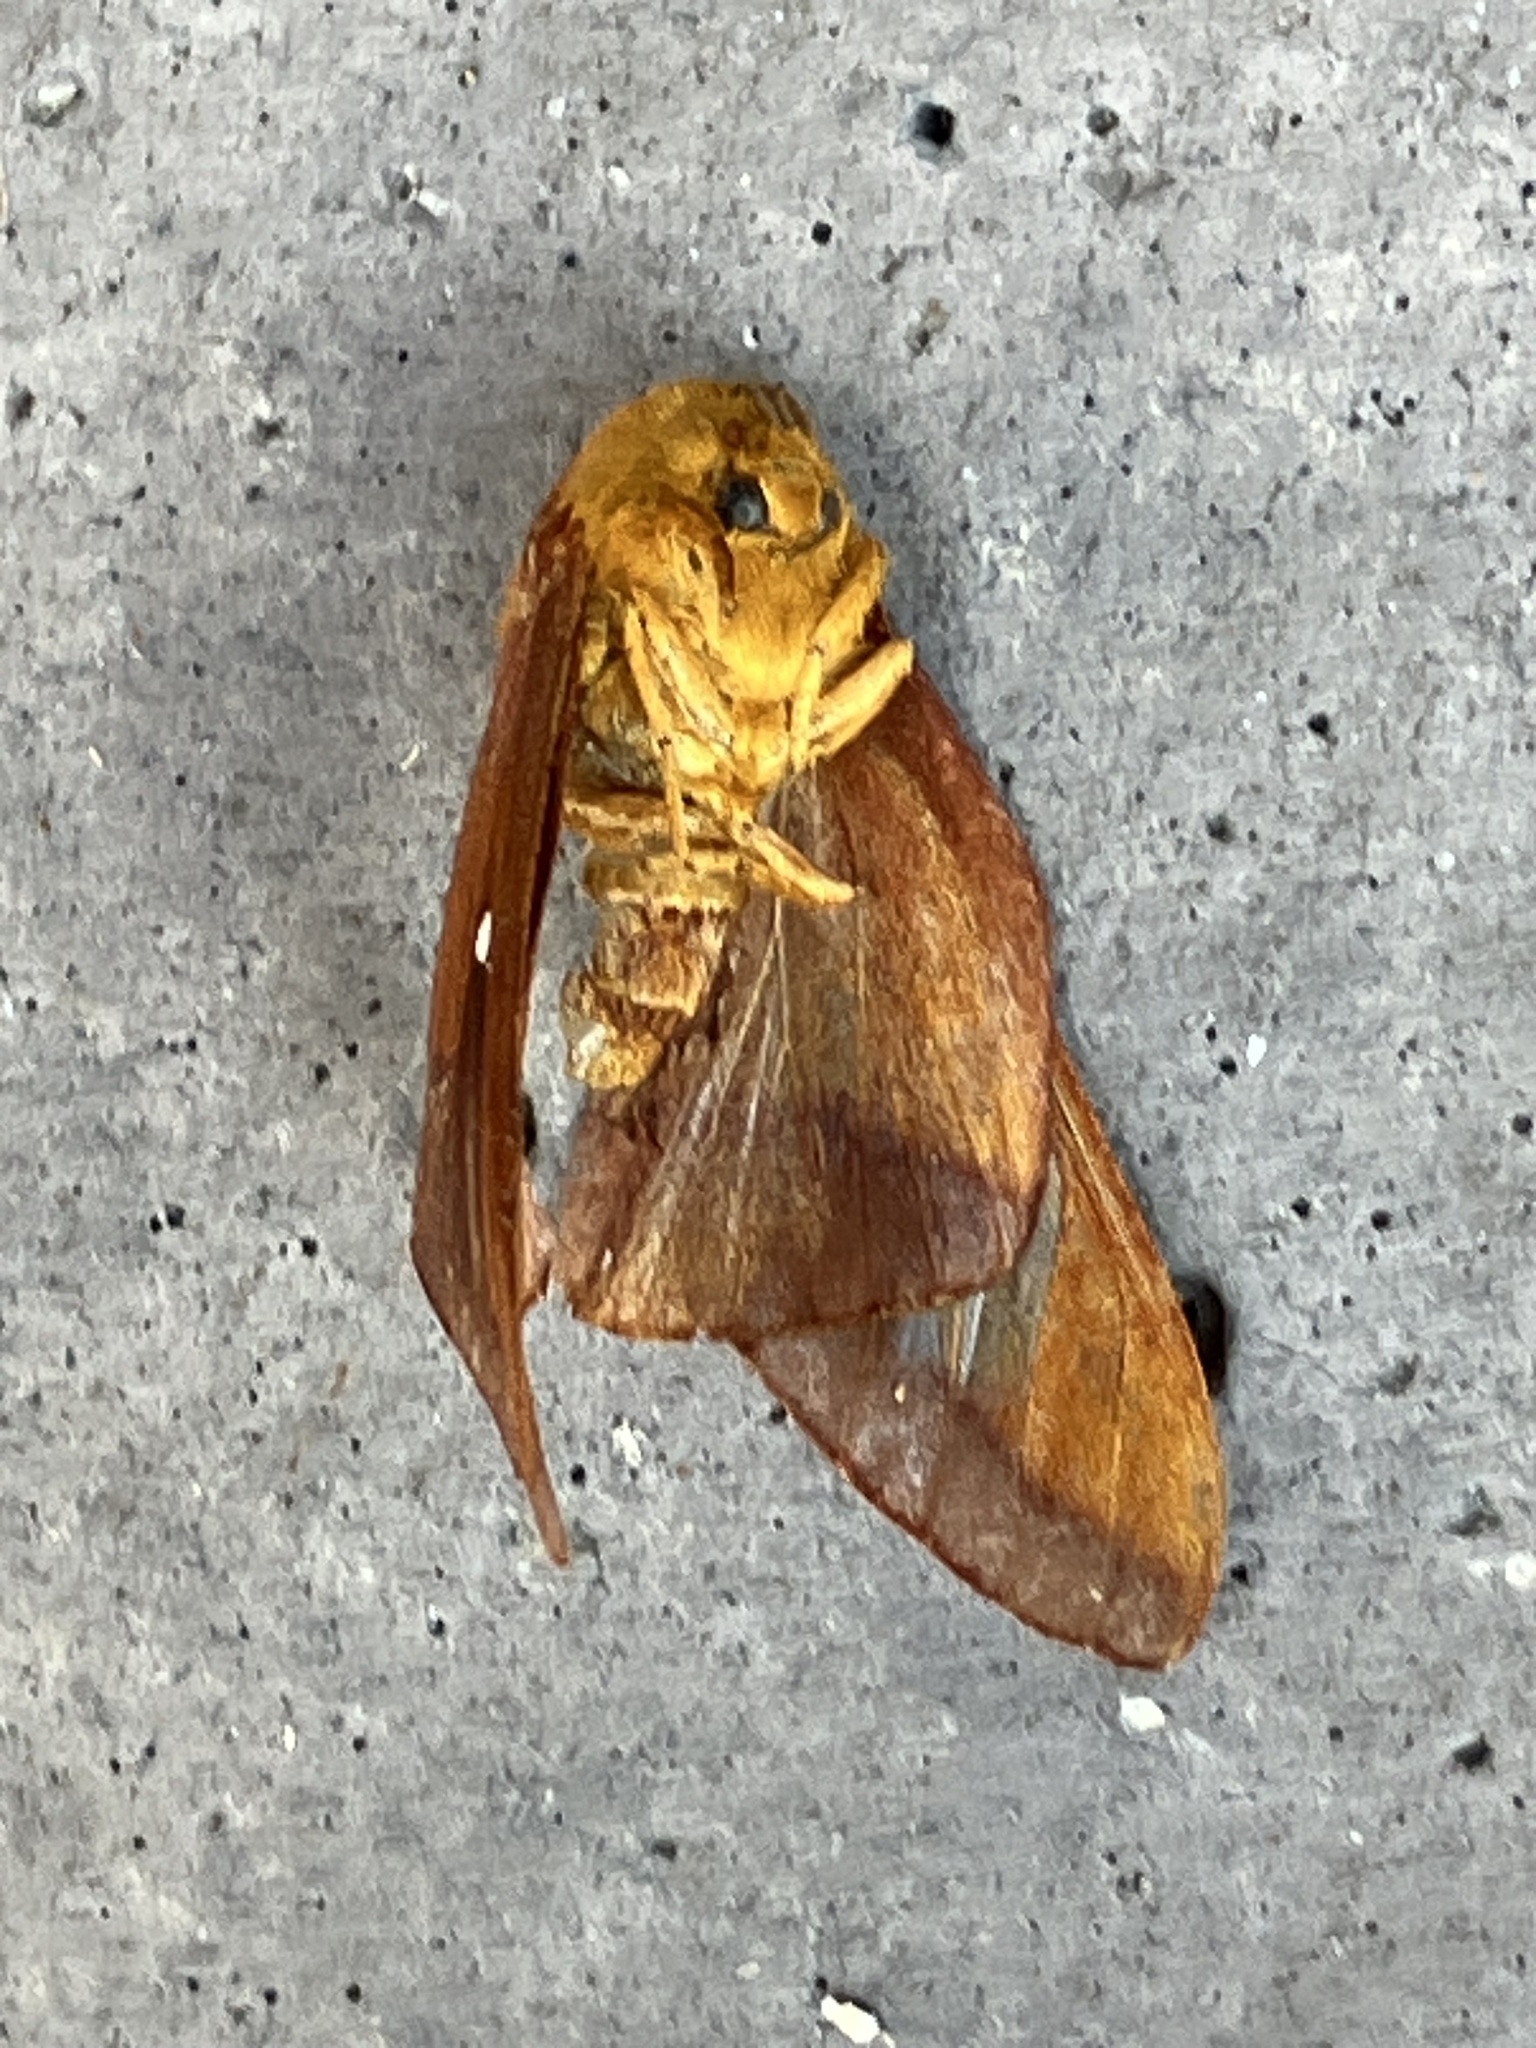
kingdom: Animalia
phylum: Arthropoda
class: Insecta
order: Lepidoptera
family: Saturniidae
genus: Anisota
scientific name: Anisota virginiensis
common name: Pink striped oakworm moth
